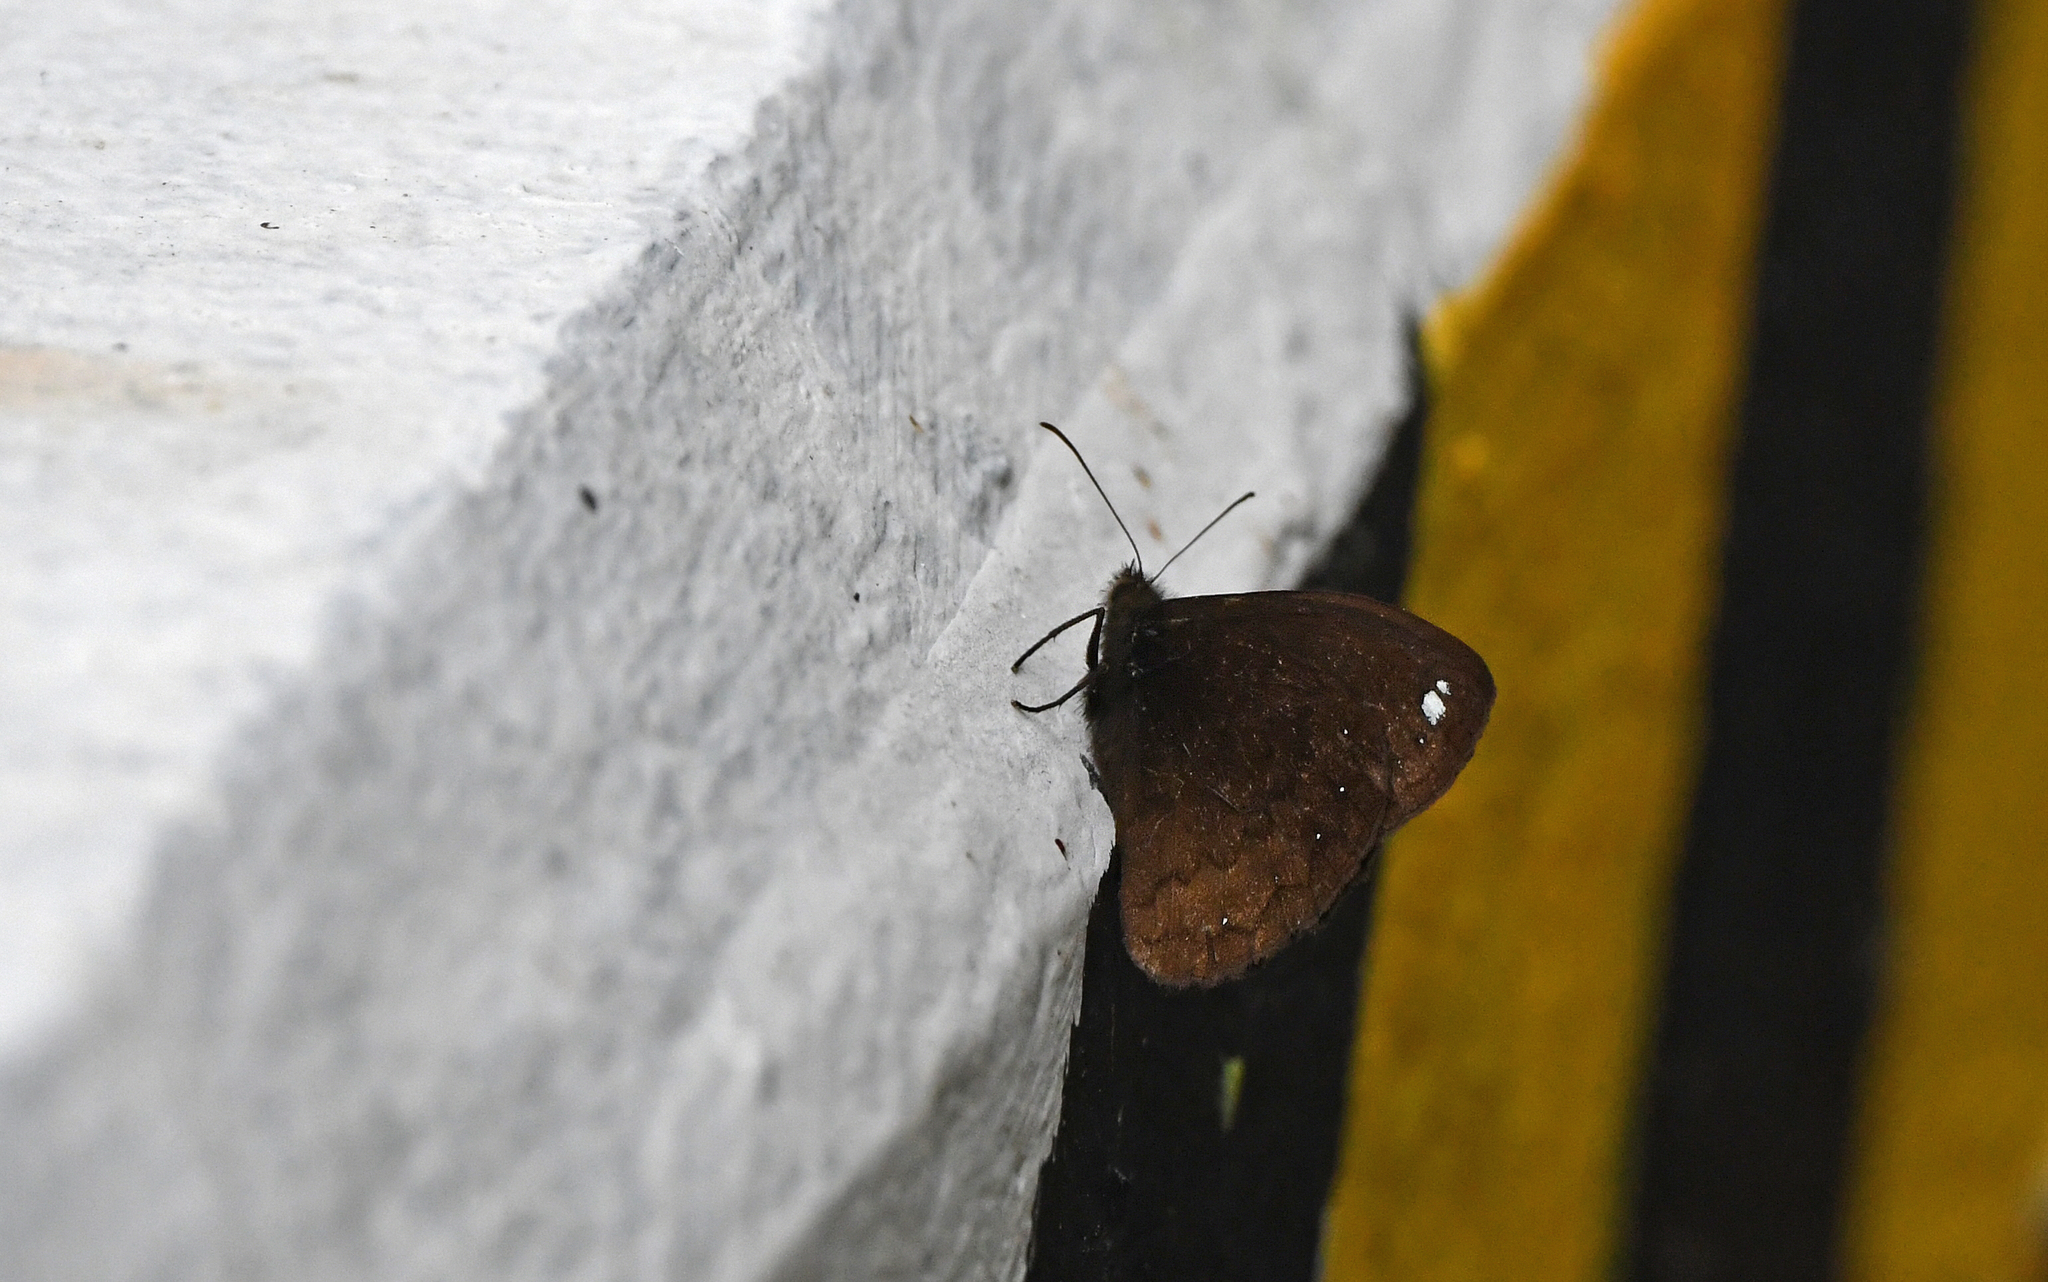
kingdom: Animalia
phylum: Arthropoda
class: Insecta
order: Lepidoptera
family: Nymphalidae
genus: Forsterinaria
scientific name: Forsterinaria rustica
